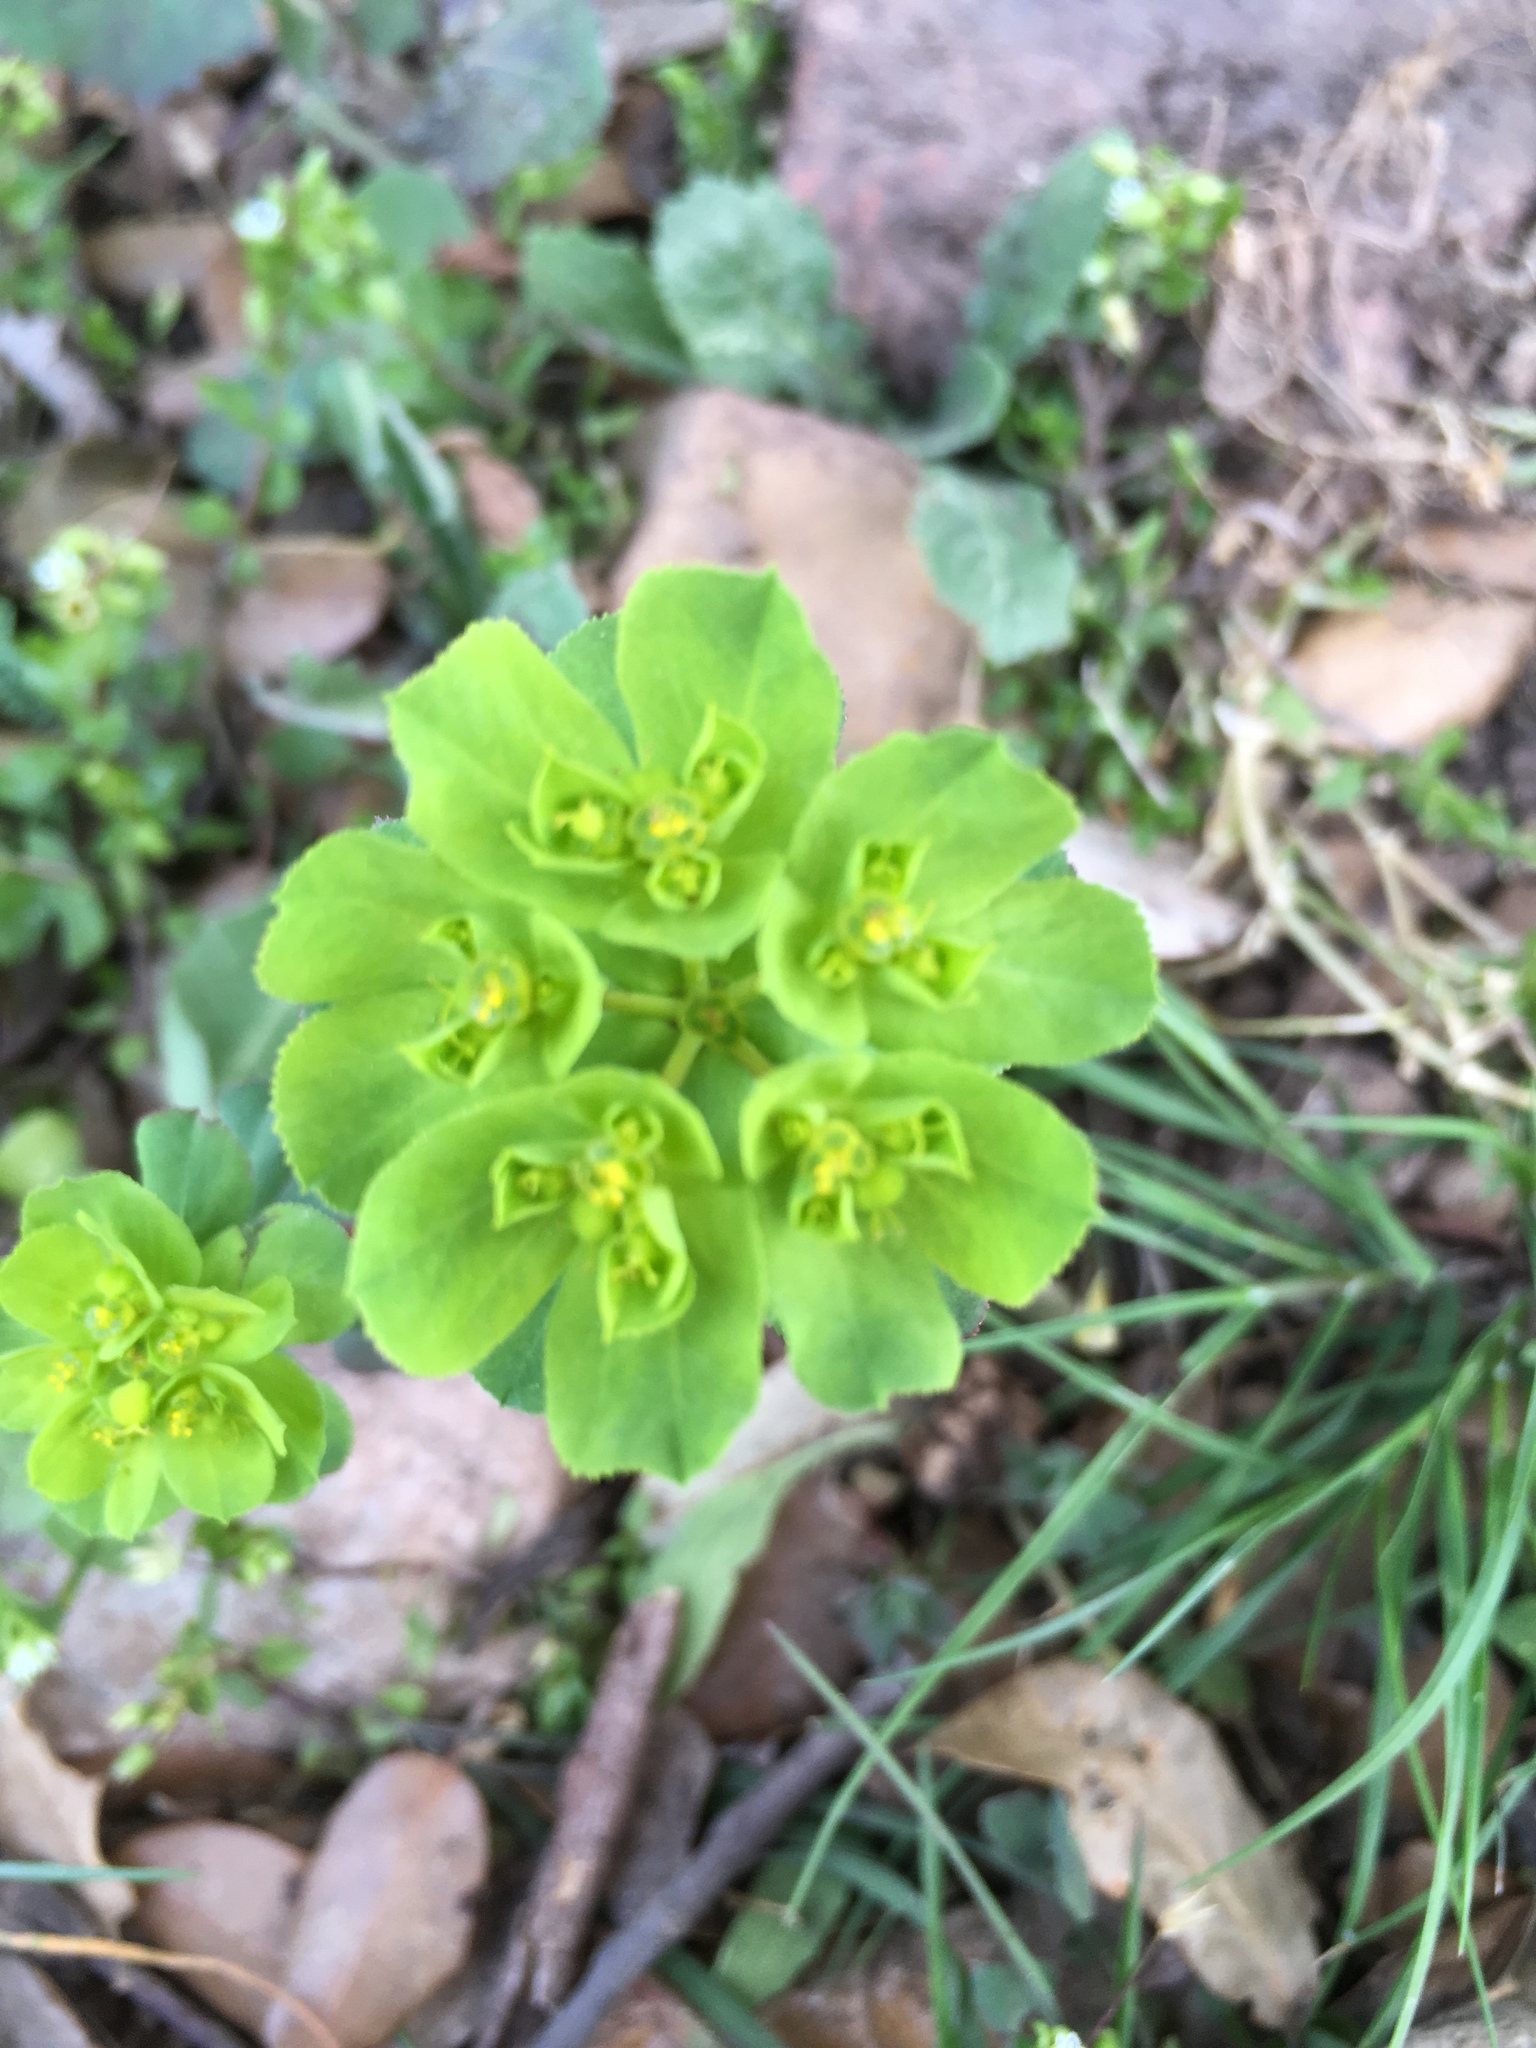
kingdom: Plantae
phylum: Tracheophyta
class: Magnoliopsida
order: Malpighiales
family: Euphorbiaceae
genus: Euphorbia
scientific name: Euphorbia helioscopia
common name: Sun spurge
